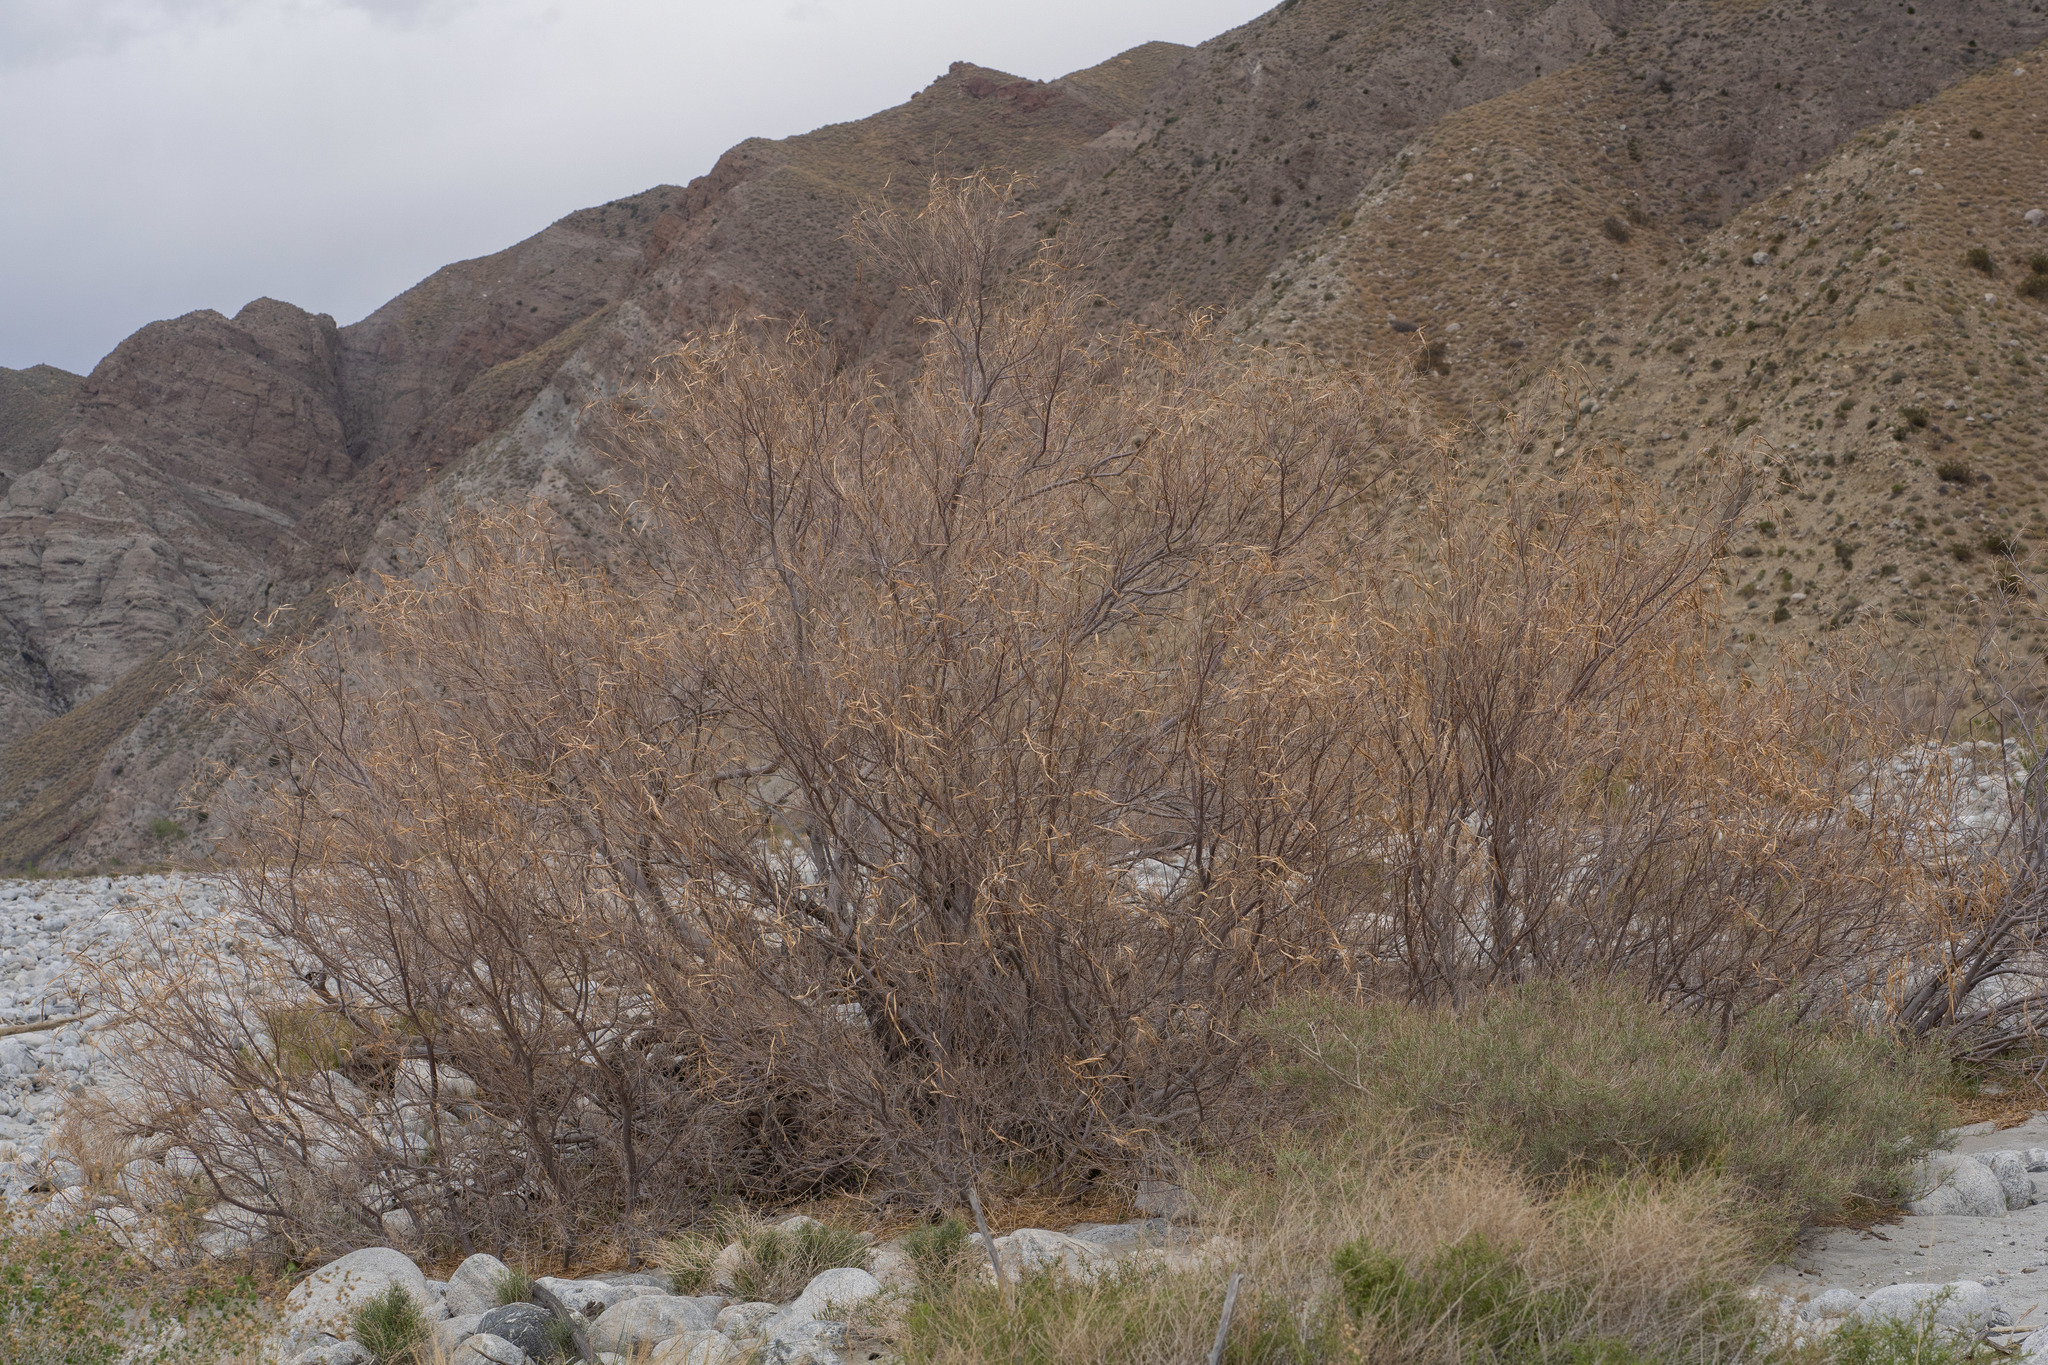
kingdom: Plantae
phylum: Tracheophyta
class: Magnoliopsida
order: Lamiales
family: Bignoniaceae
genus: Chilopsis
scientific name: Chilopsis linearis
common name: Desert-willow
